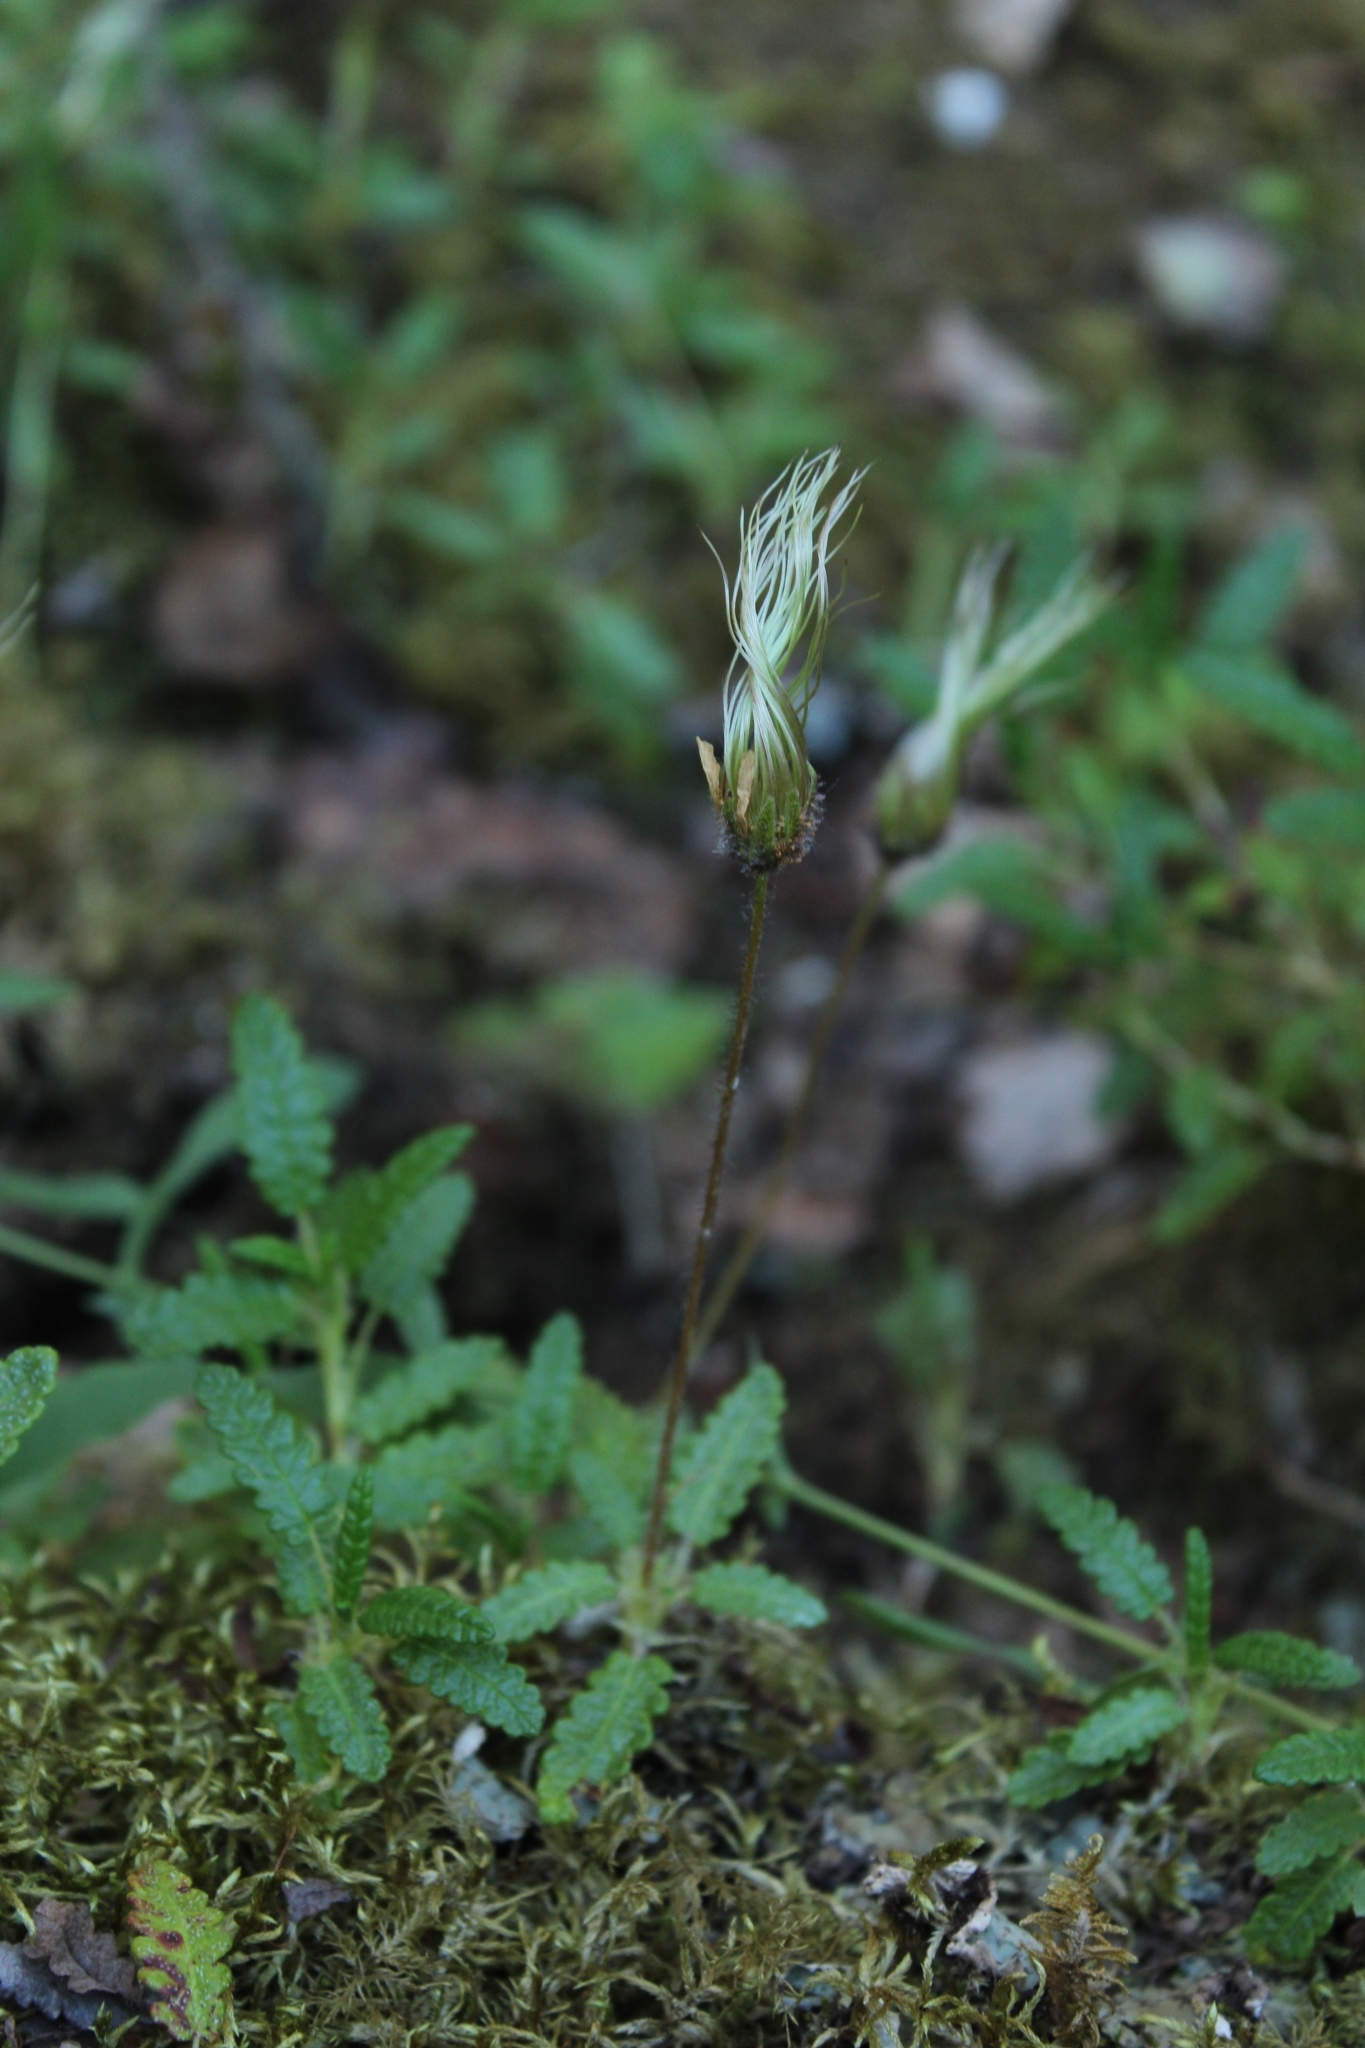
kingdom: Plantae
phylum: Tracheophyta
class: Magnoliopsida
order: Rosales
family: Rosaceae
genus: Dryas
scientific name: Dryas octopetala
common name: Eight-petal mountain-avens
